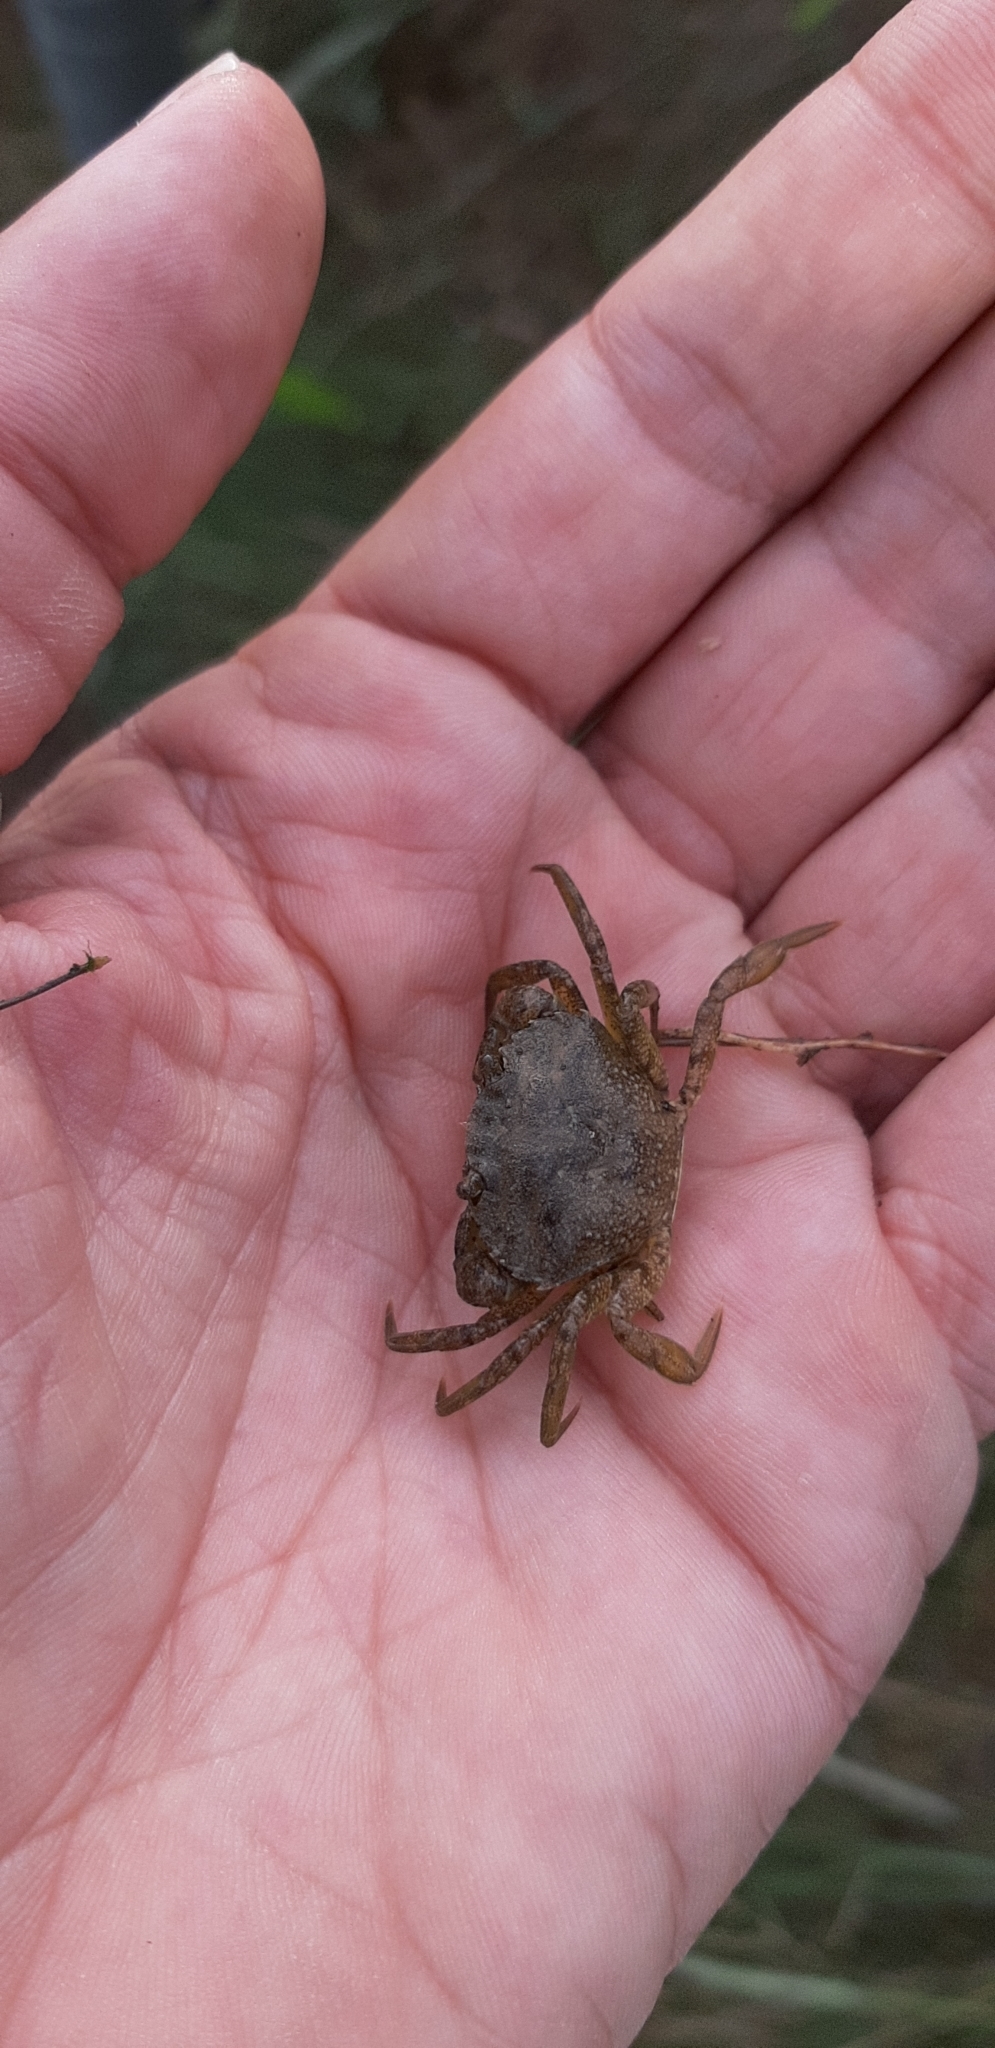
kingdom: Animalia
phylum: Arthropoda
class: Malacostraca
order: Decapoda
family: Carcinidae
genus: Carcinus
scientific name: Carcinus maenas
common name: European green crab
